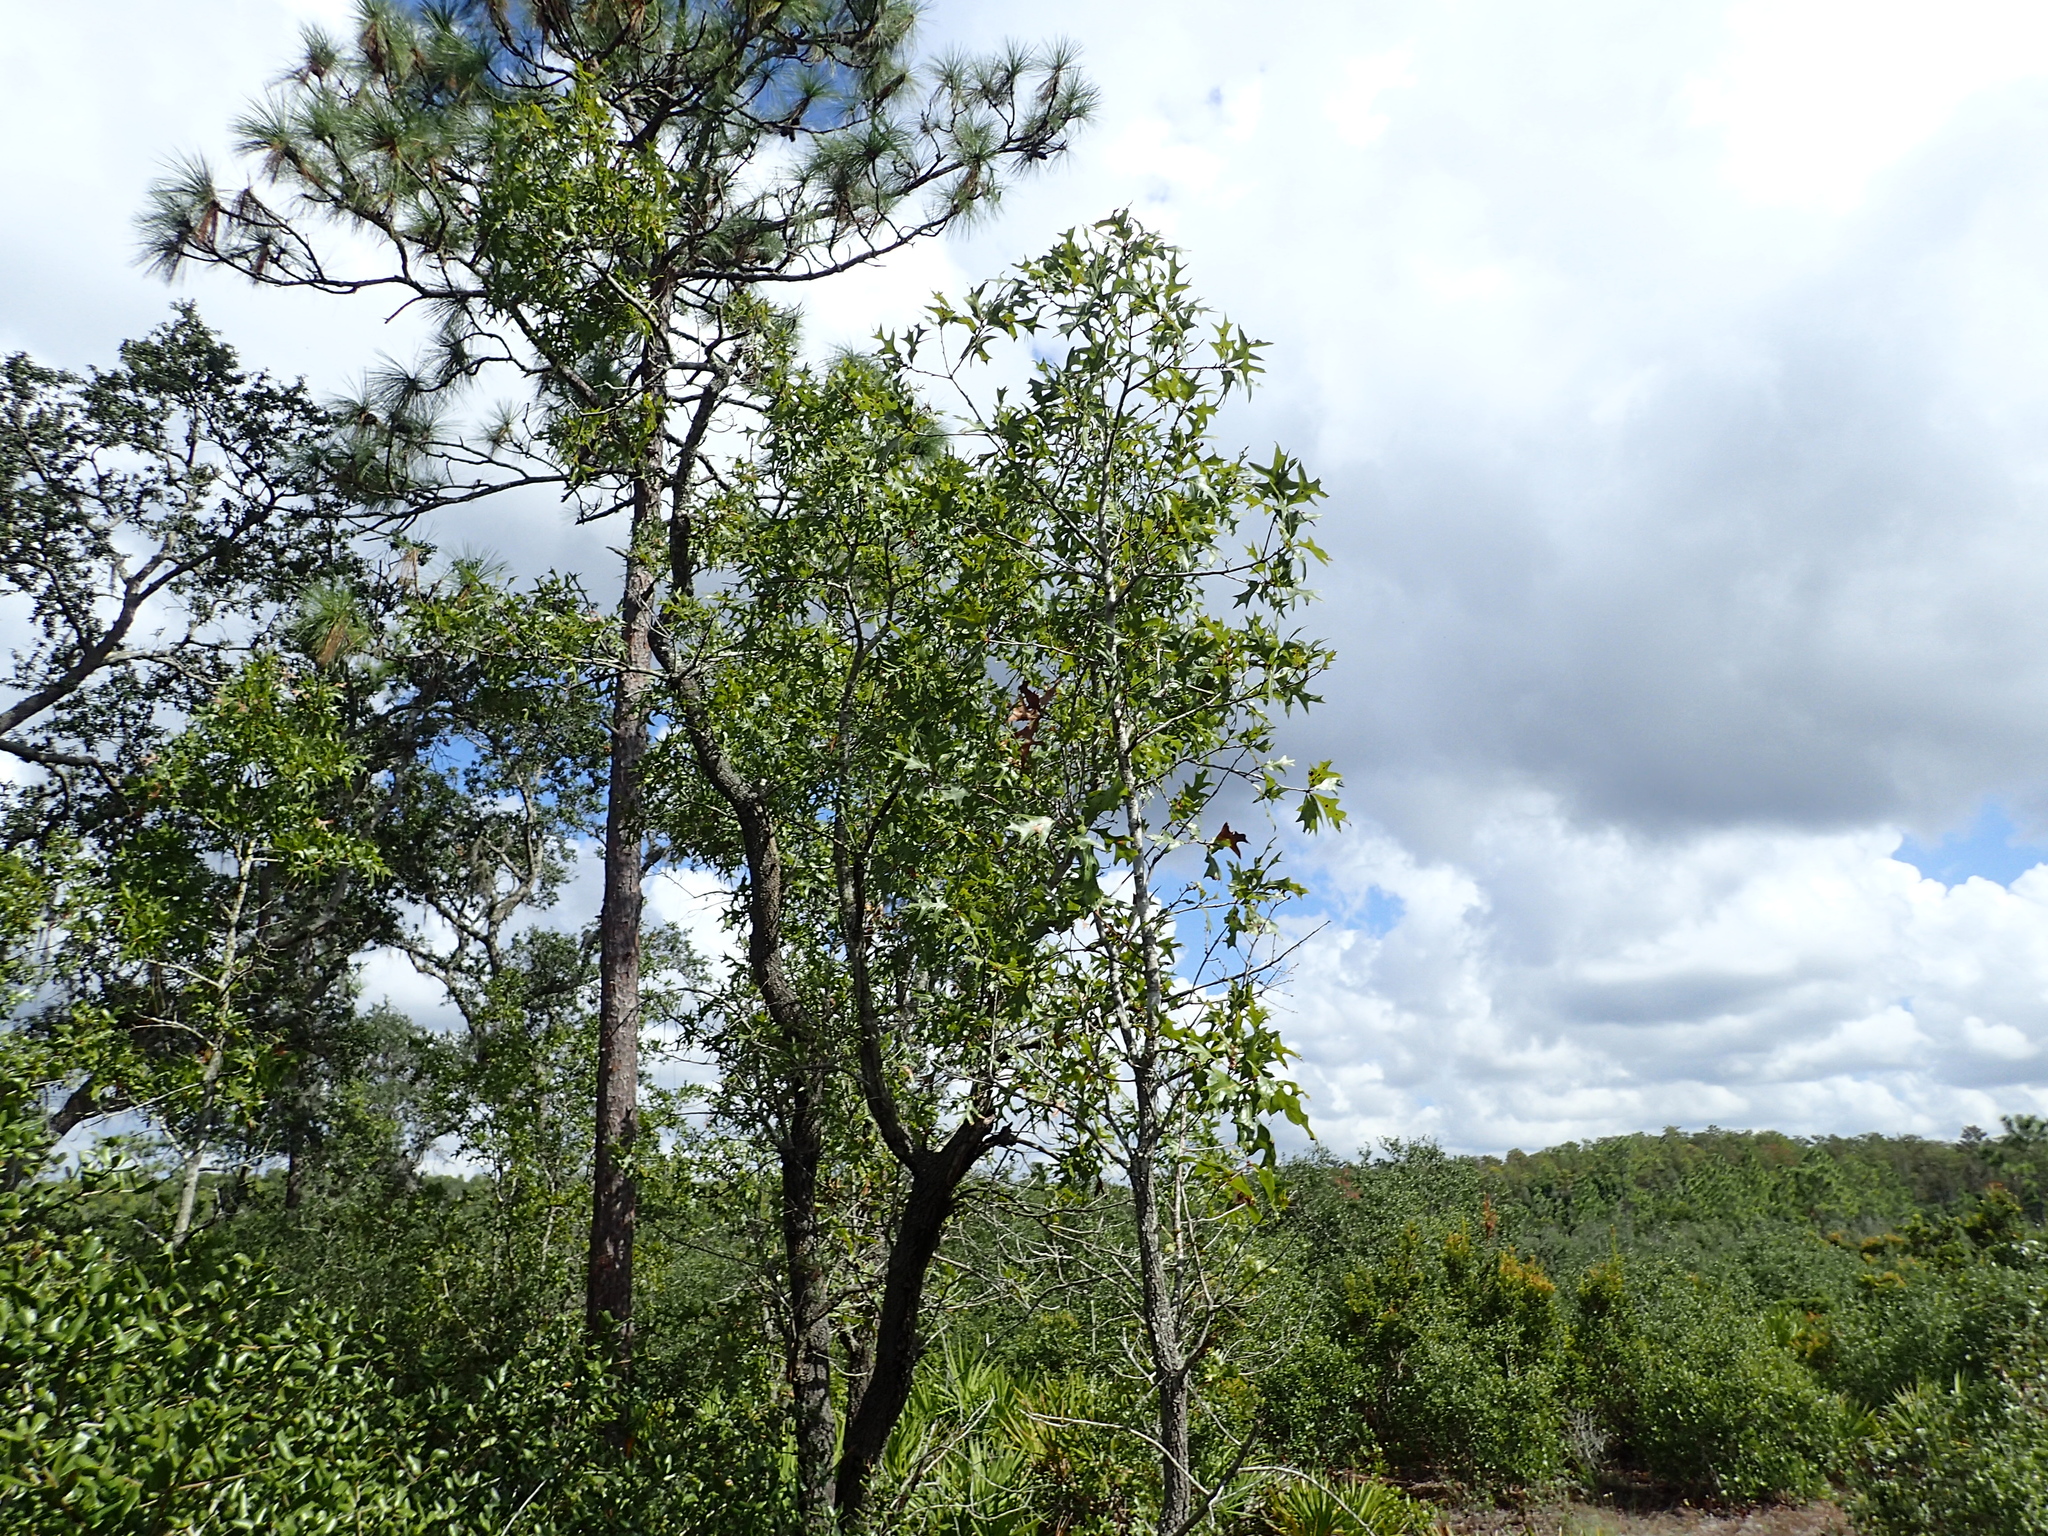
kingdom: Plantae
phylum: Tracheophyta
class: Magnoliopsida
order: Fagales
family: Fagaceae
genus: Quercus
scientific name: Quercus laevis
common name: Turkey oak
